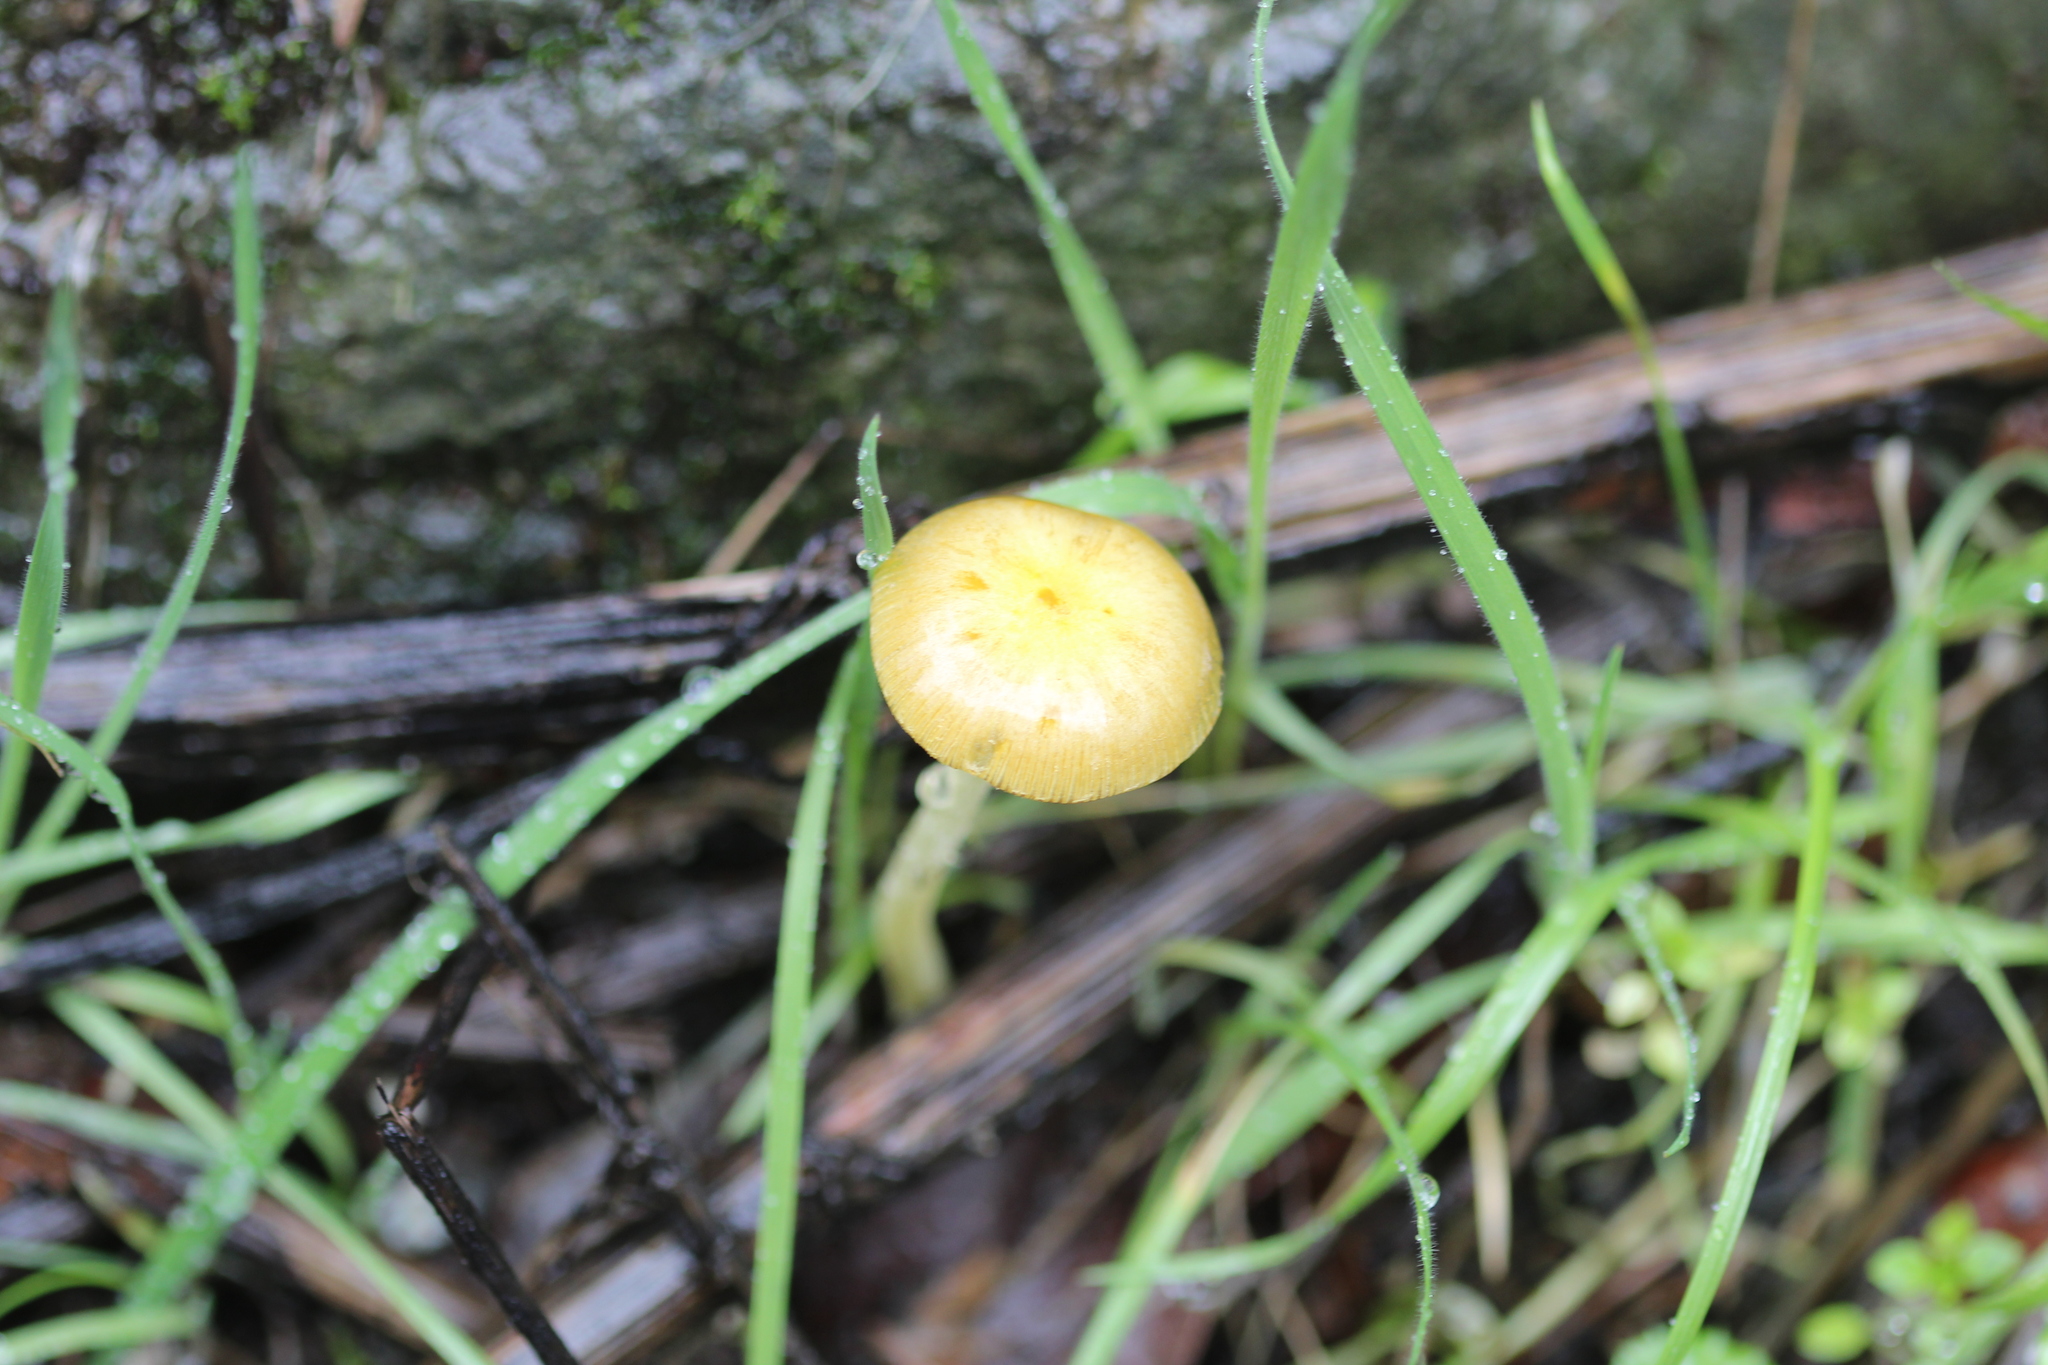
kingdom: Fungi
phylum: Basidiomycota
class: Agaricomycetes
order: Agaricales
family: Bolbitiaceae
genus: Bolbitius
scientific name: Bolbitius titubans
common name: Yellow fieldcap
